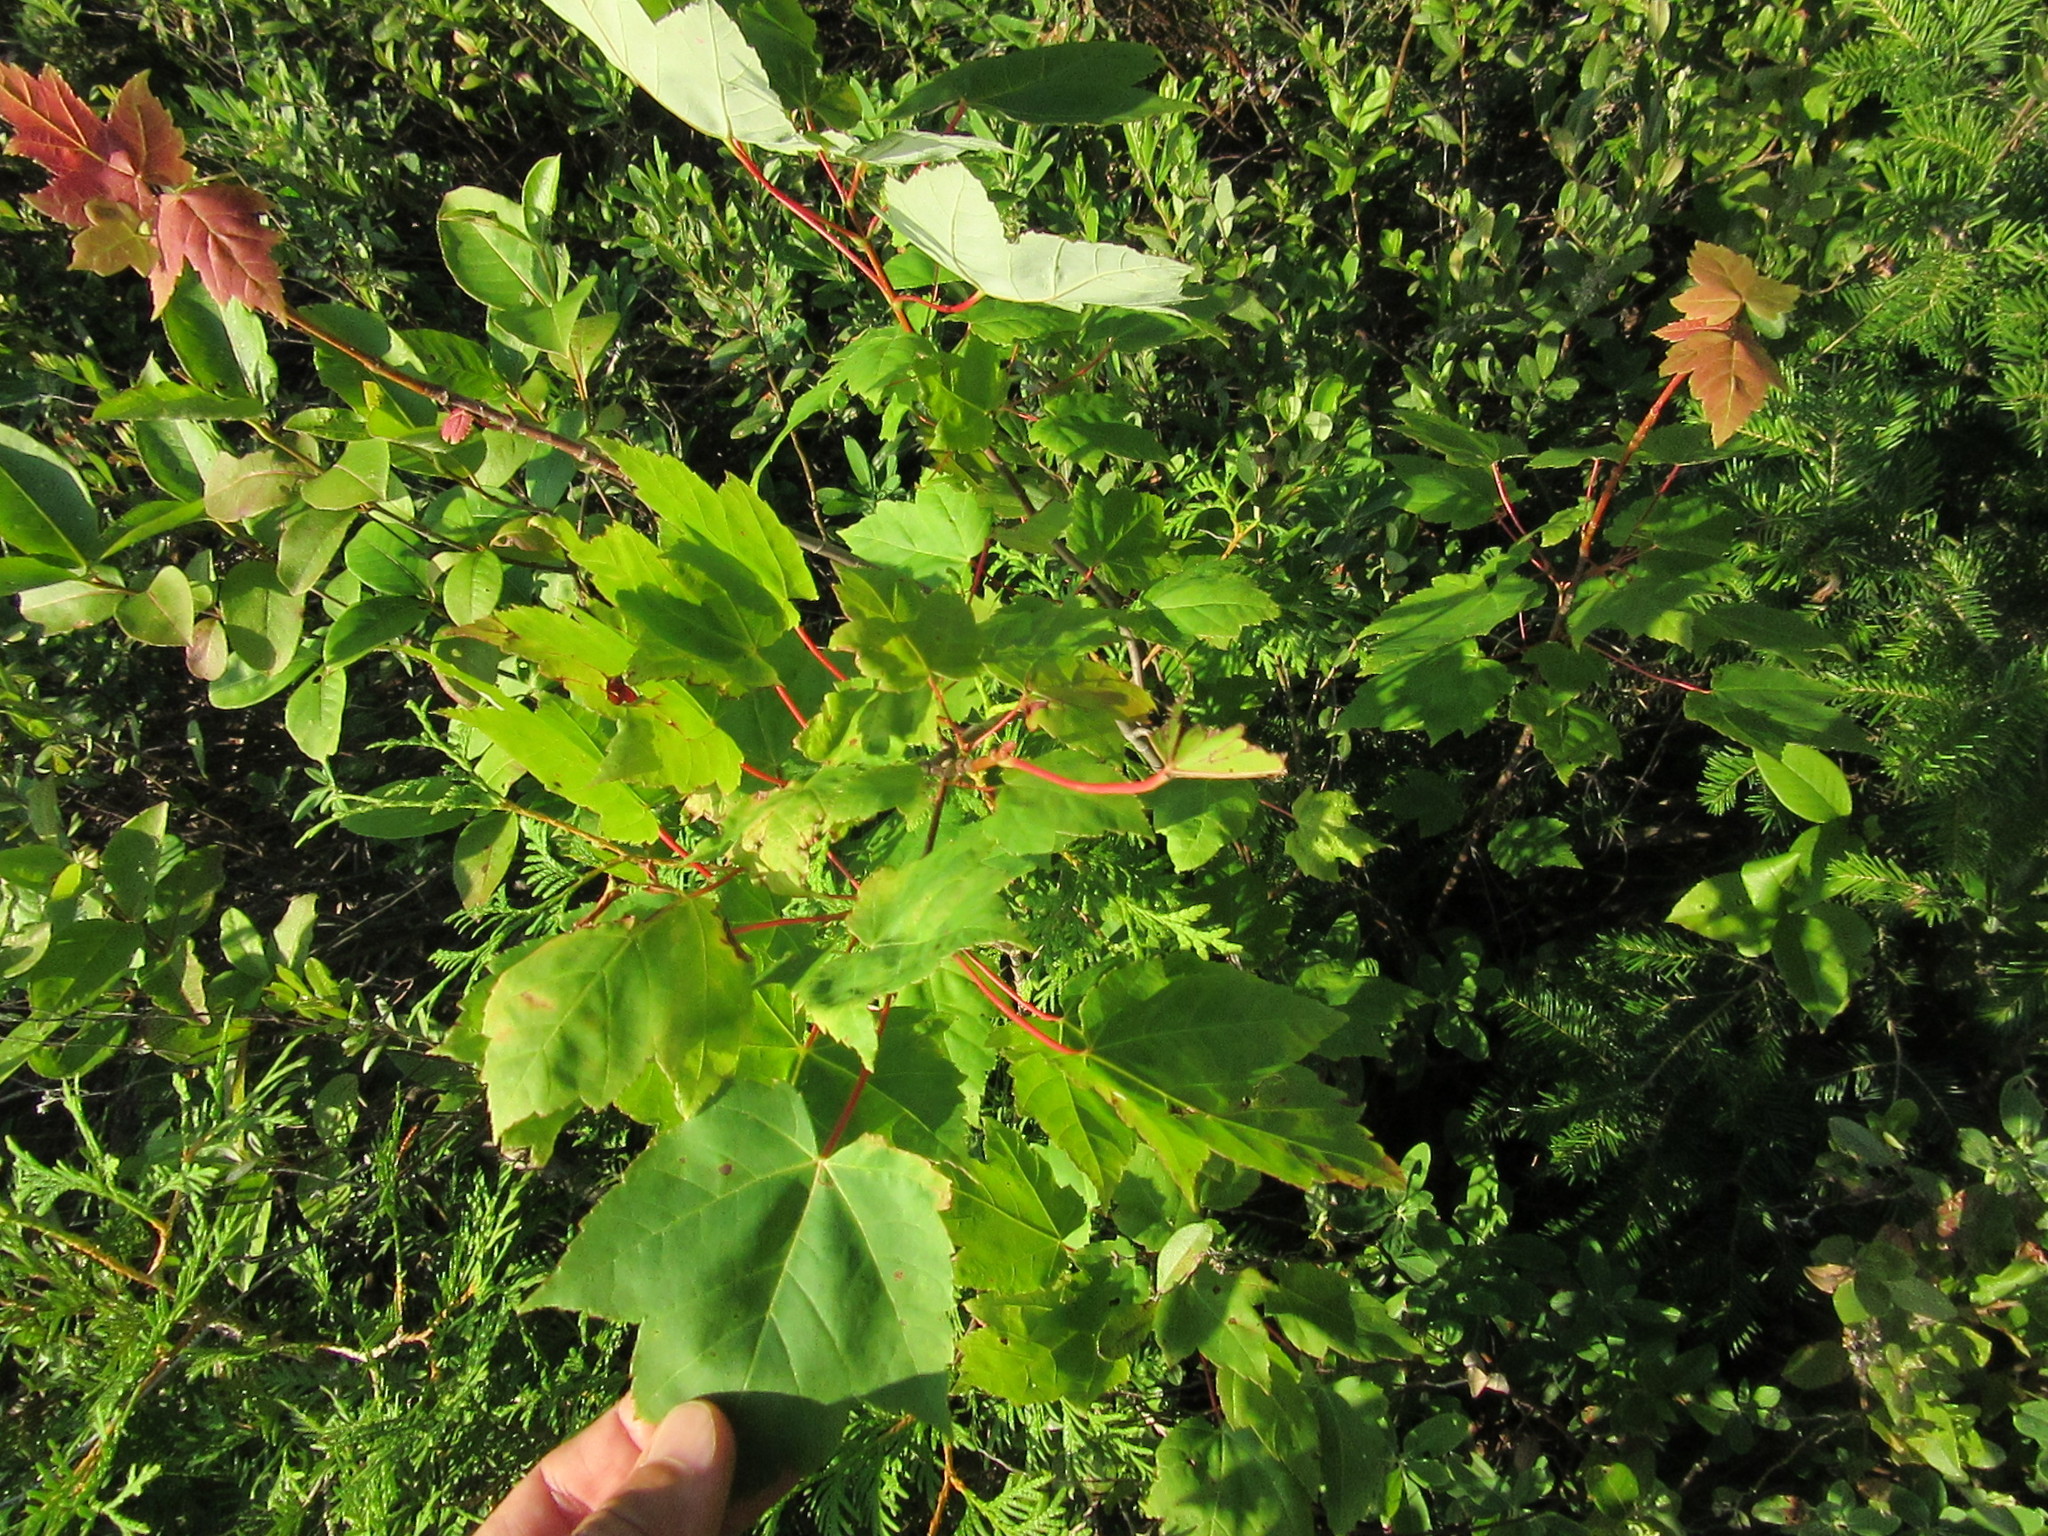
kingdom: Plantae
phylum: Tracheophyta
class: Magnoliopsida
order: Sapindales
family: Sapindaceae
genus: Acer
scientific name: Acer rubrum
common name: Red maple
